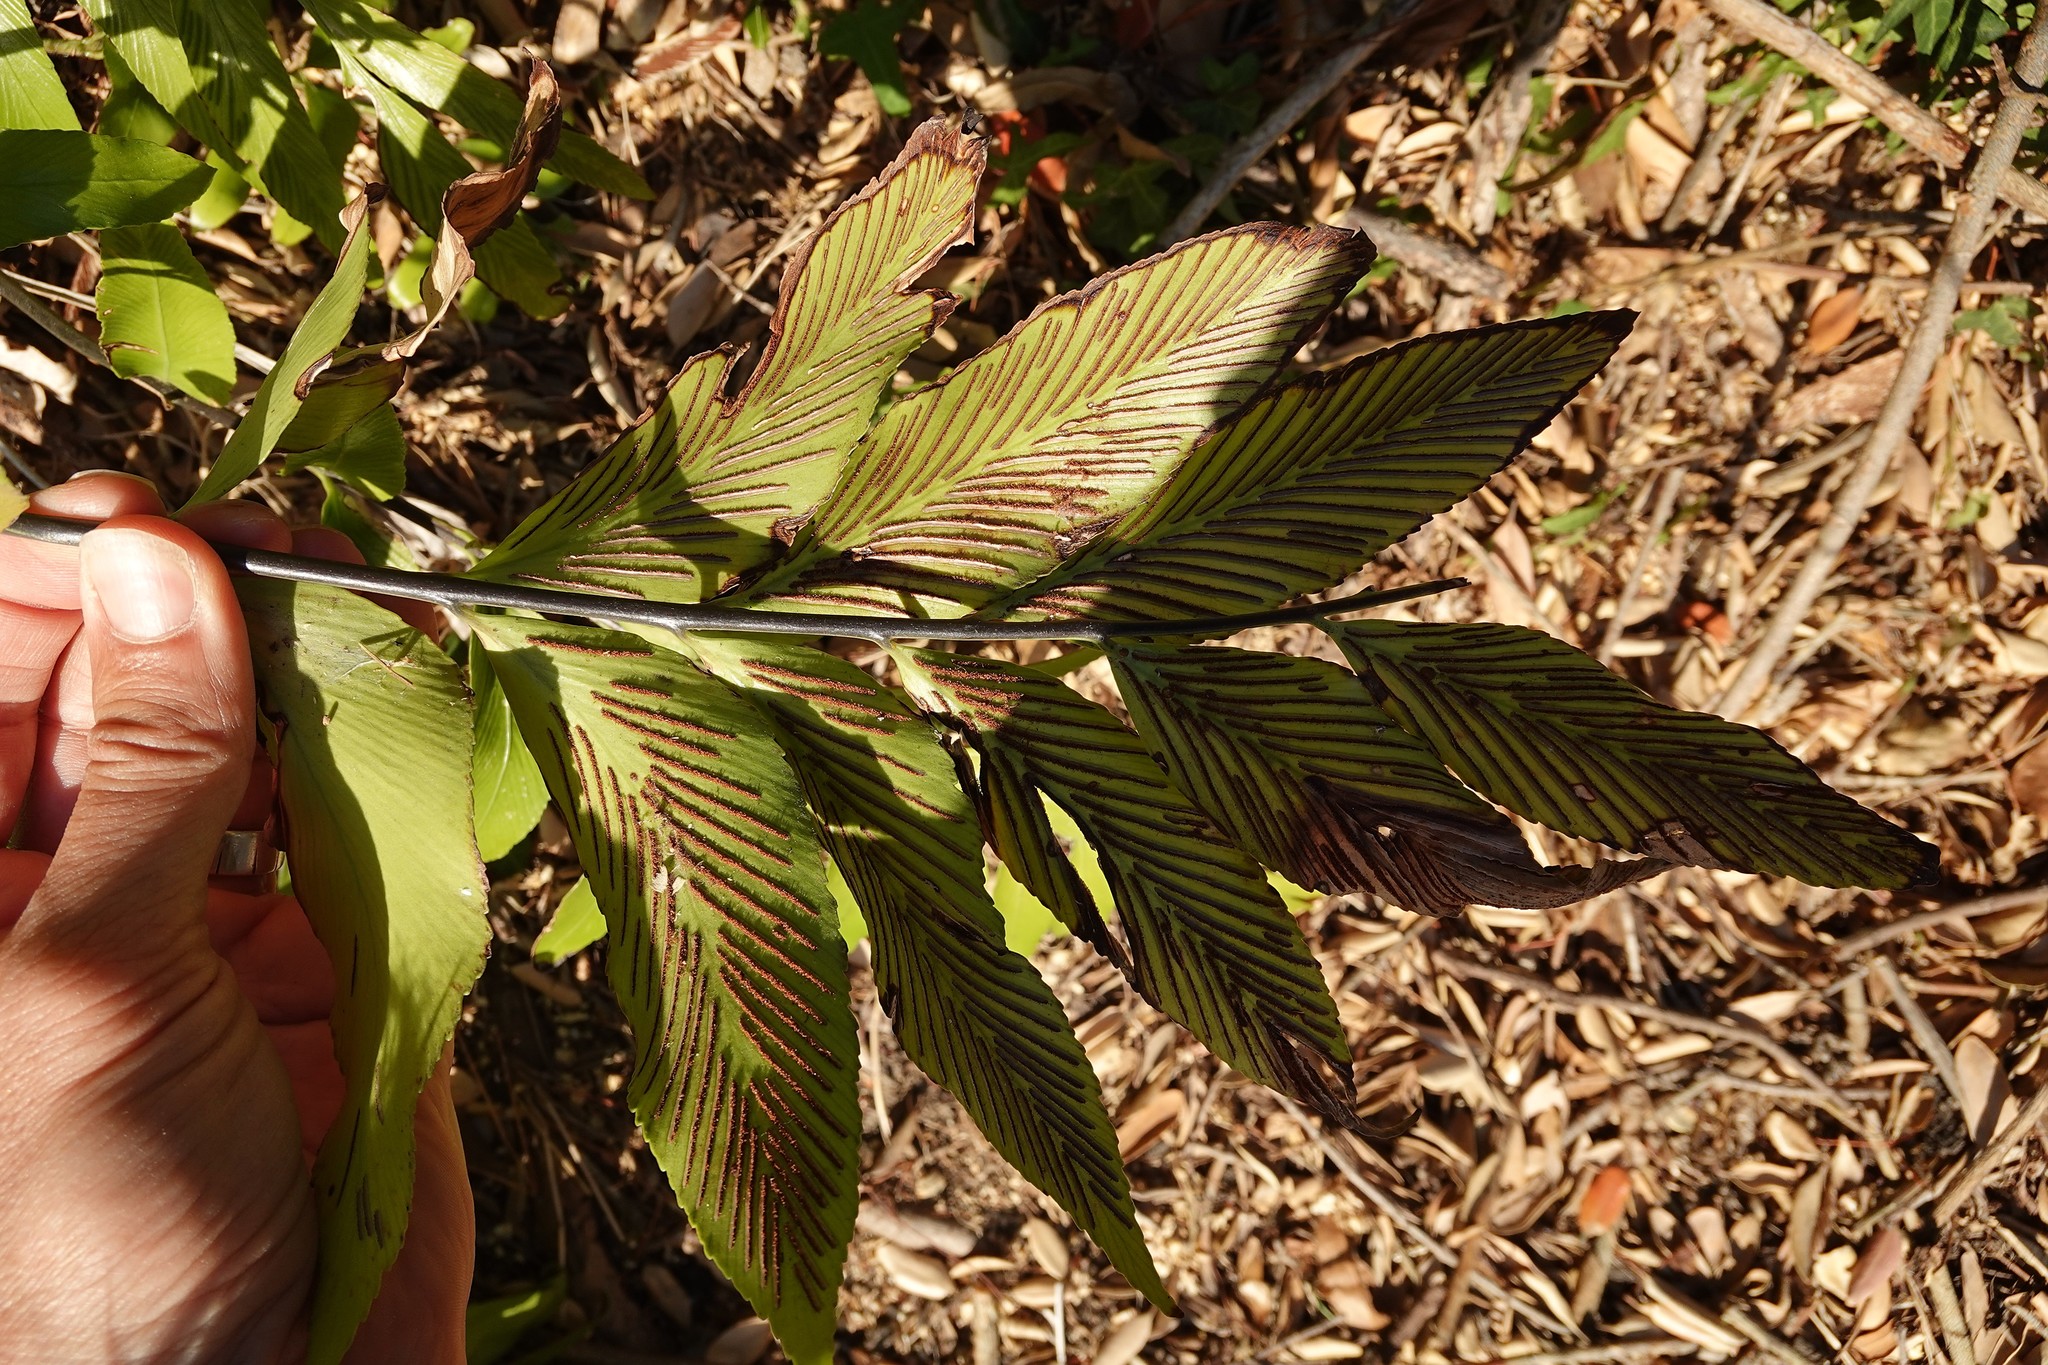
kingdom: Plantae
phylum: Tracheophyta
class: Polypodiopsida
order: Polypodiales
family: Aspleniaceae
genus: Asplenium
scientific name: Asplenium oblongifolium
